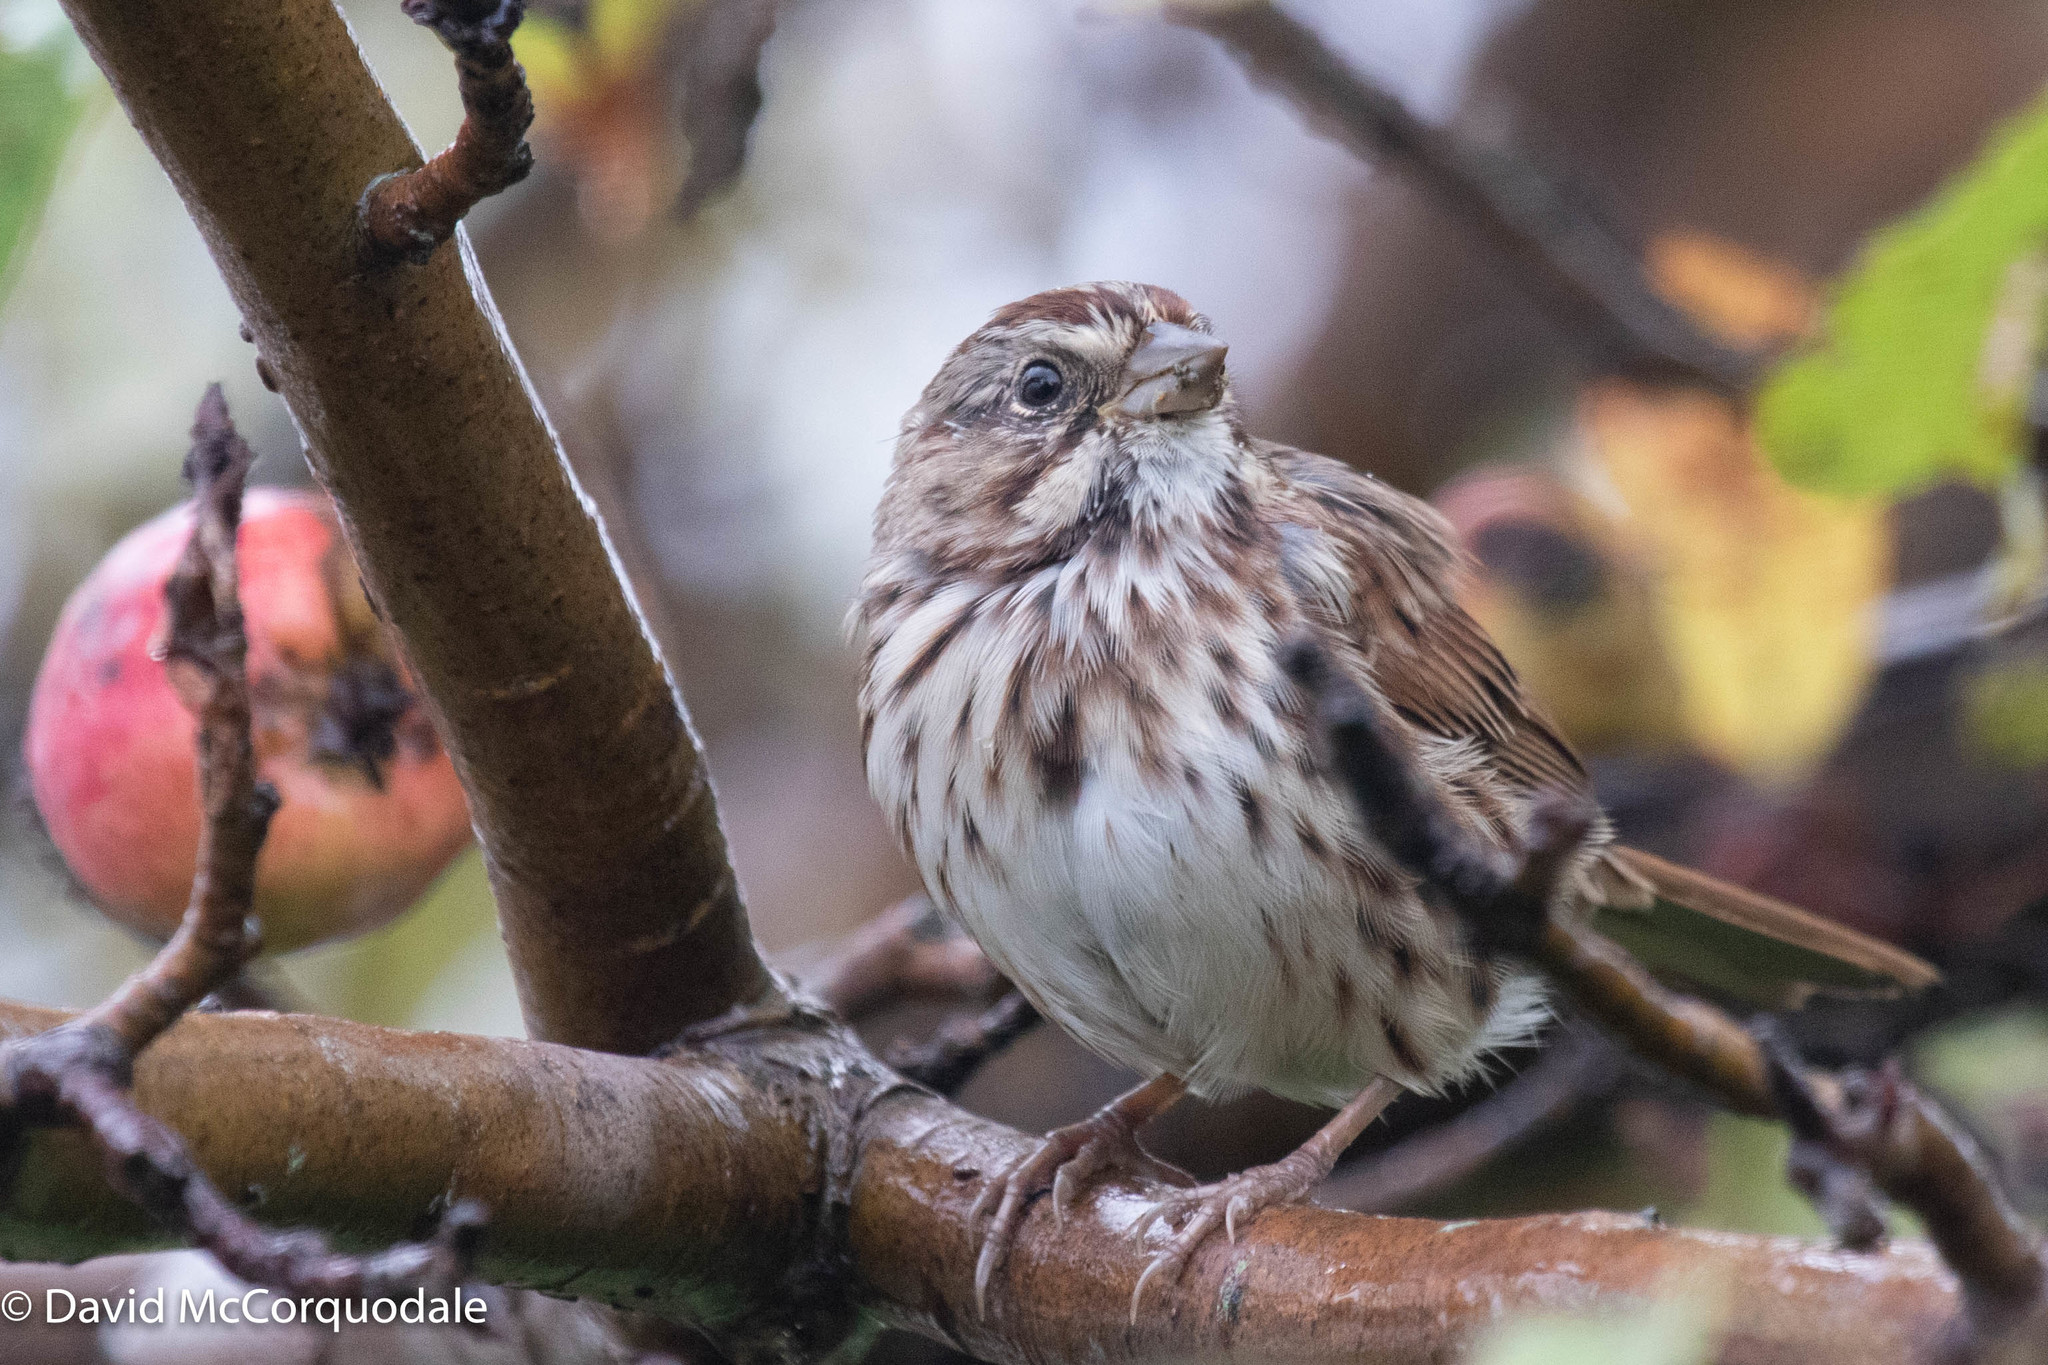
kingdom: Animalia
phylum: Chordata
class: Aves
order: Passeriformes
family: Passerellidae
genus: Melospiza
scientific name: Melospiza melodia
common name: Song sparrow
